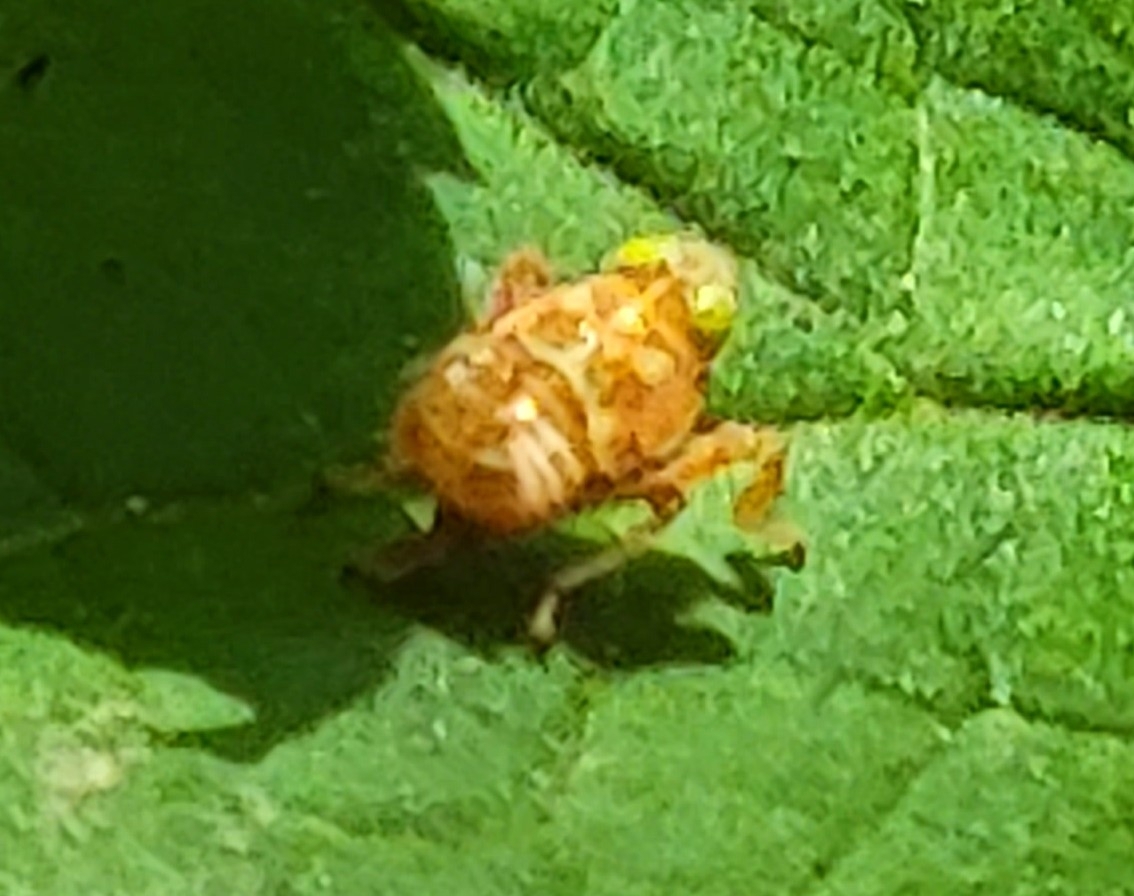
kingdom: Animalia
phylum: Arthropoda
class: Insecta
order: Hemiptera
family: Cicadellidae
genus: Jikradia
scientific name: Jikradia olitoria
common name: Coppery leafhopper
